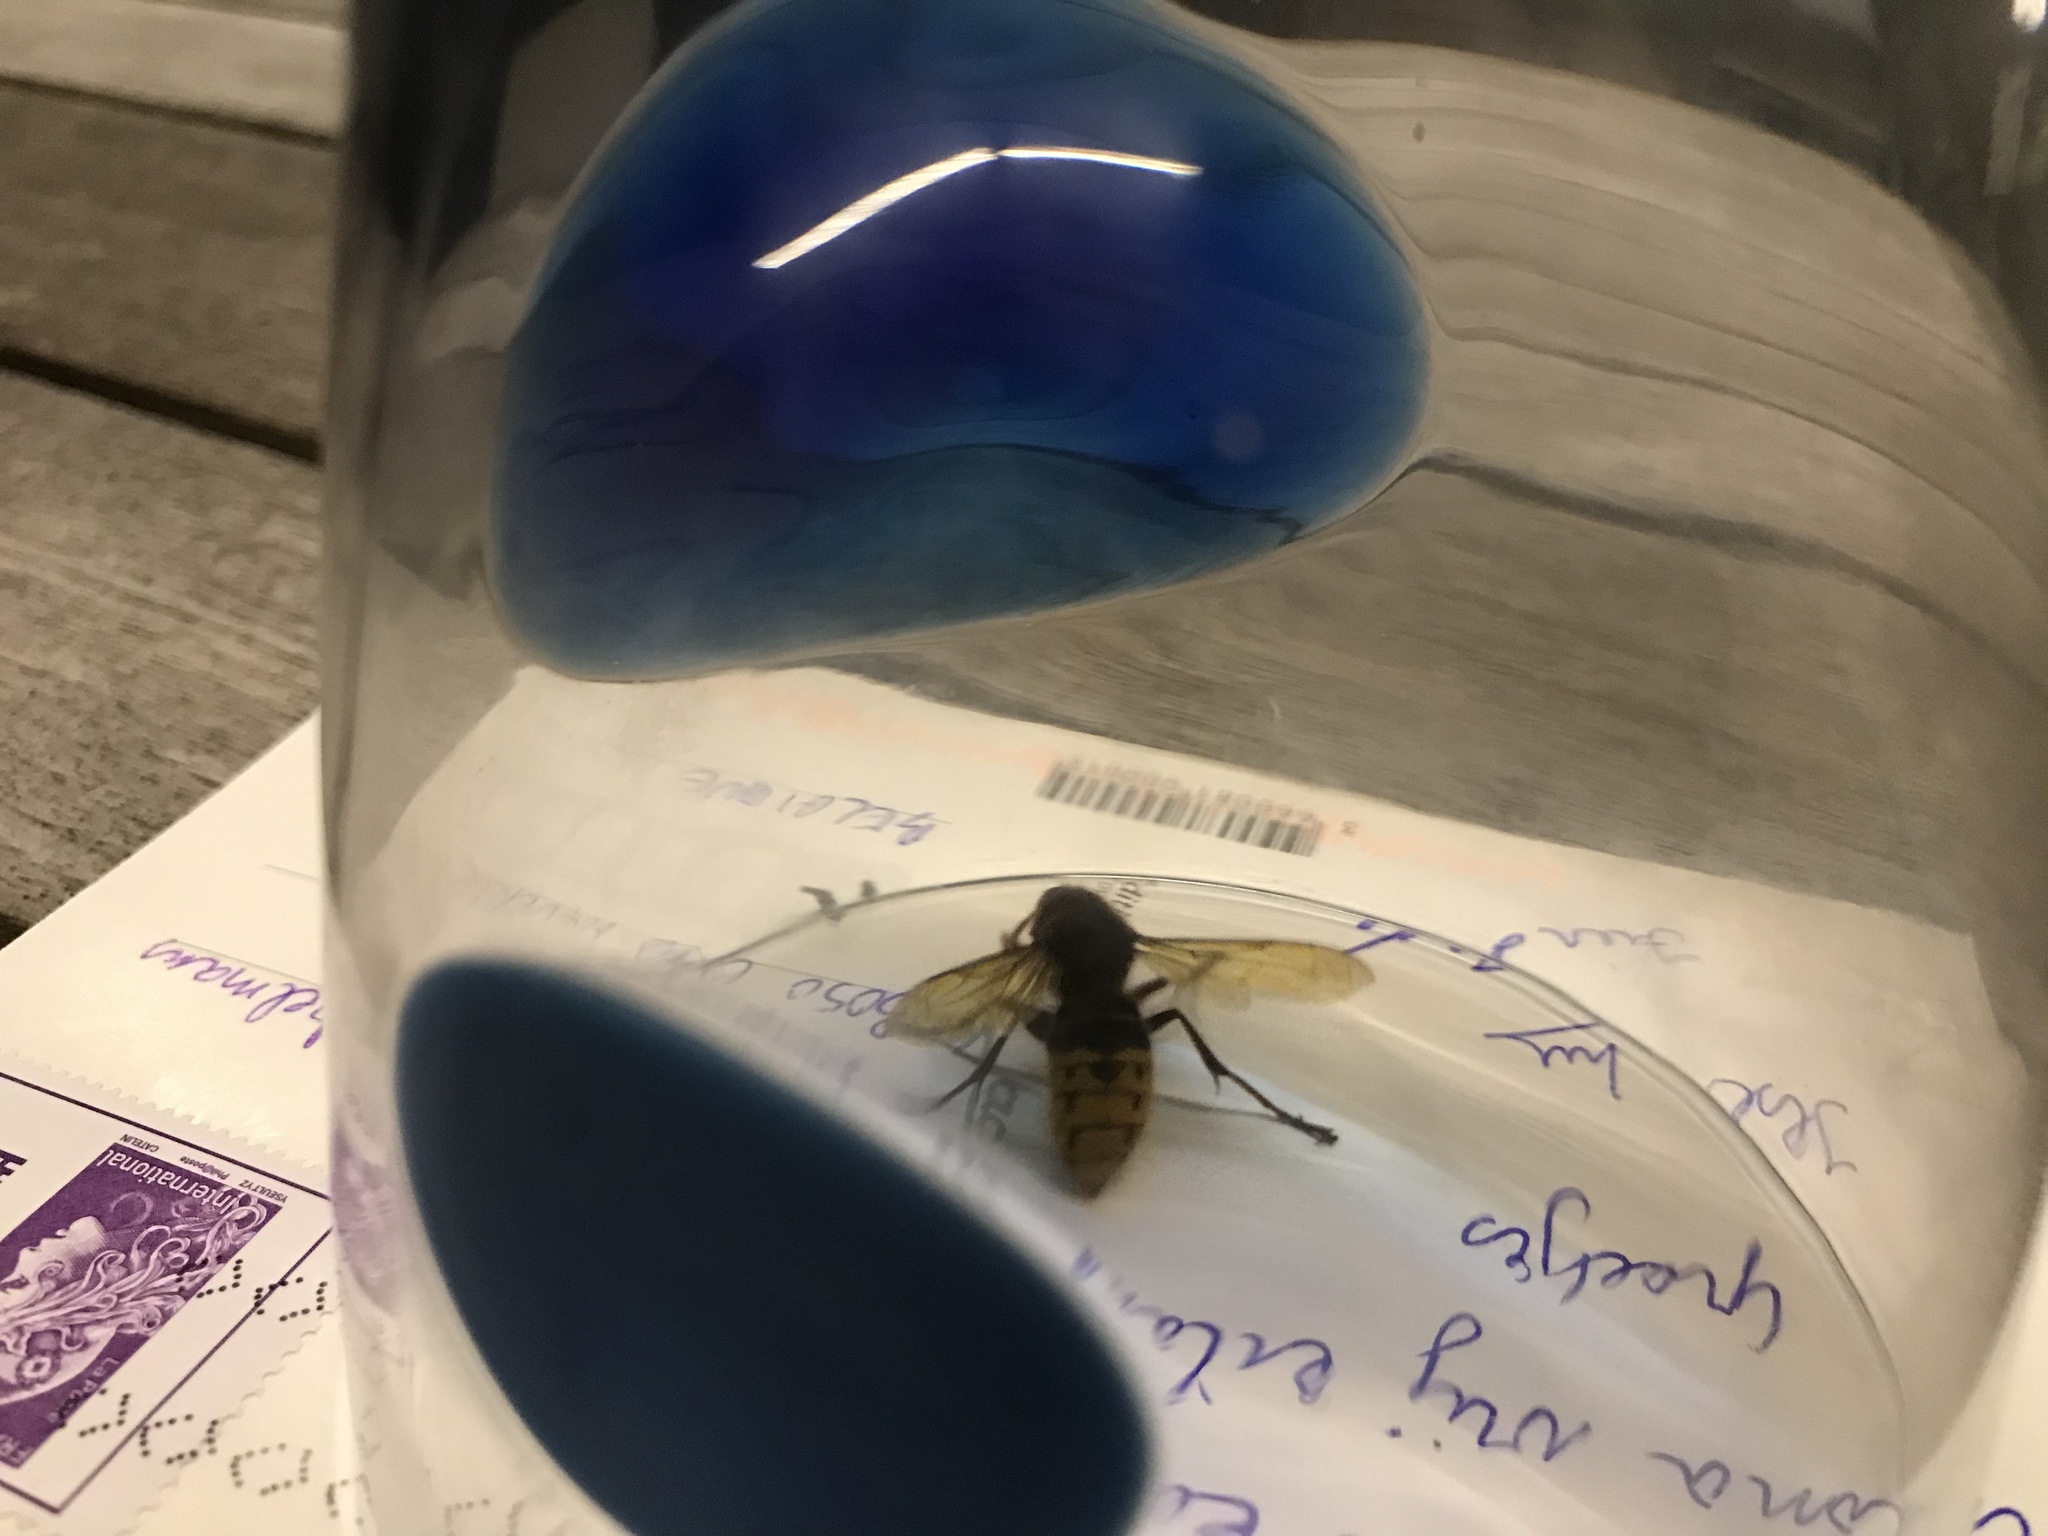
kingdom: Animalia
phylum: Arthropoda
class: Insecta
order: Hymenoptera
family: Vespidae
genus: Vespa
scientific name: Vespa crabro
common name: Hornet
